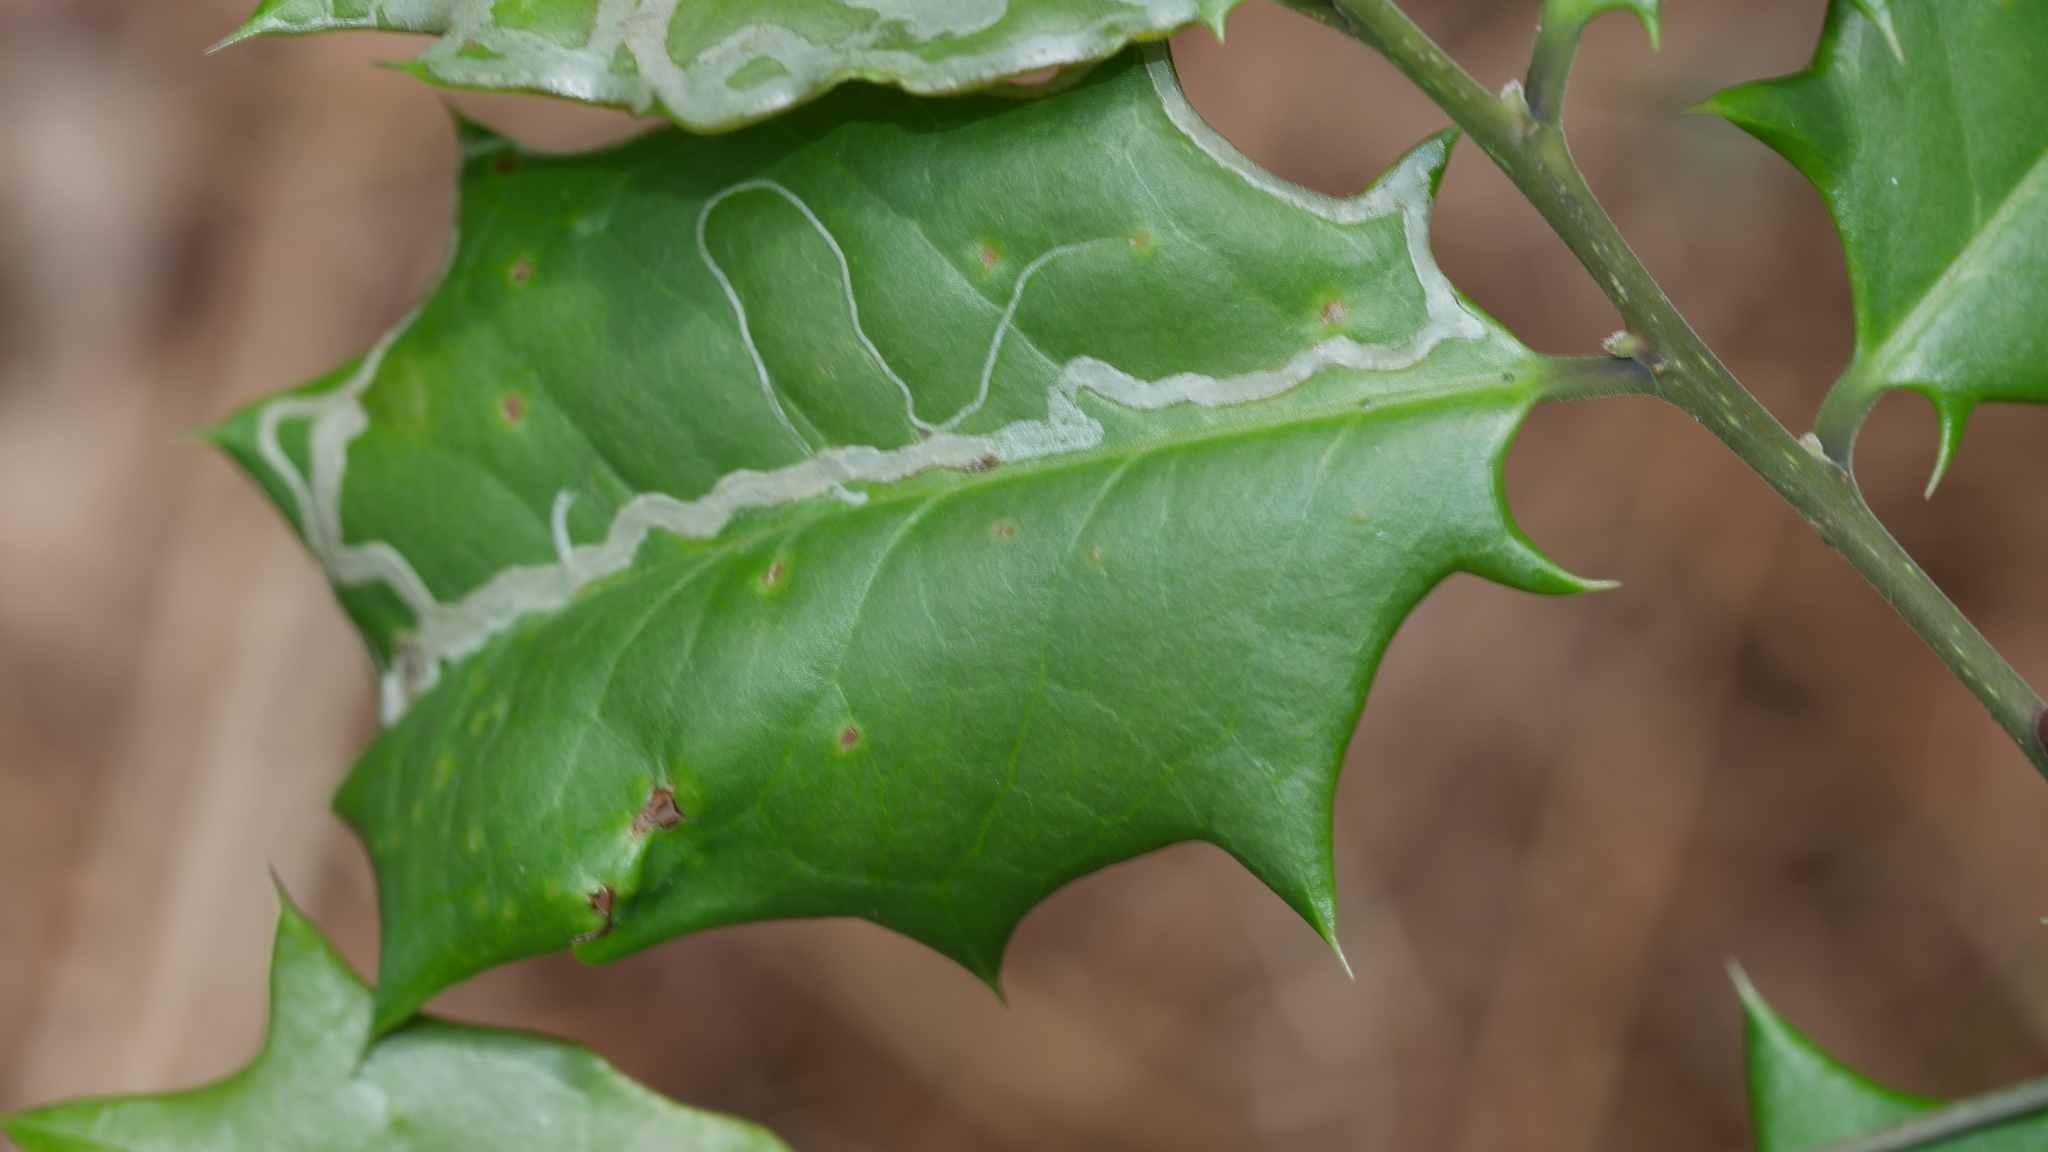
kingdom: Animalia
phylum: Arthropoda
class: Insecta
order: Diptera
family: Agromyzidae
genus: Phytomyza
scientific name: Phytomyza opacae
